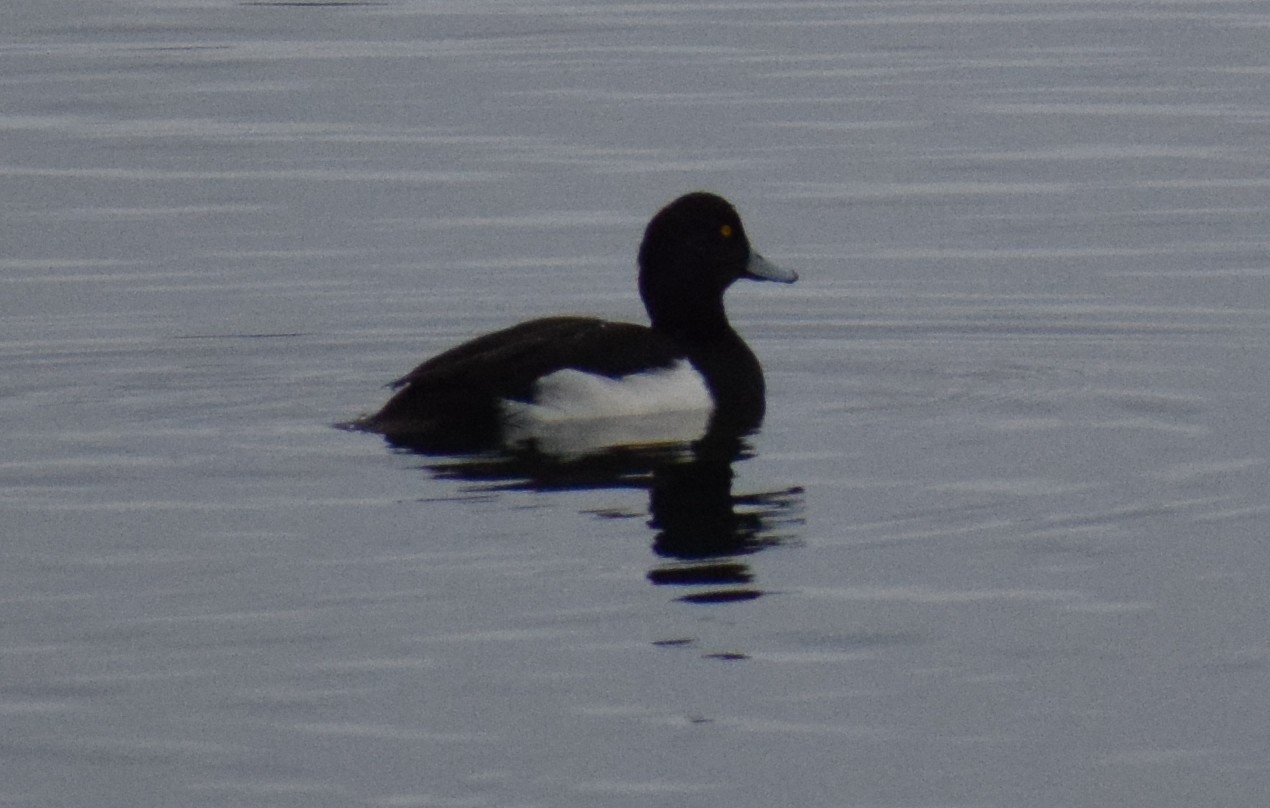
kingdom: Animalia
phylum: Chordata
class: Aves
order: Anseriformes
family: Anatidae
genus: Aythya
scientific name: Aythya fuligula
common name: Tufted duck
